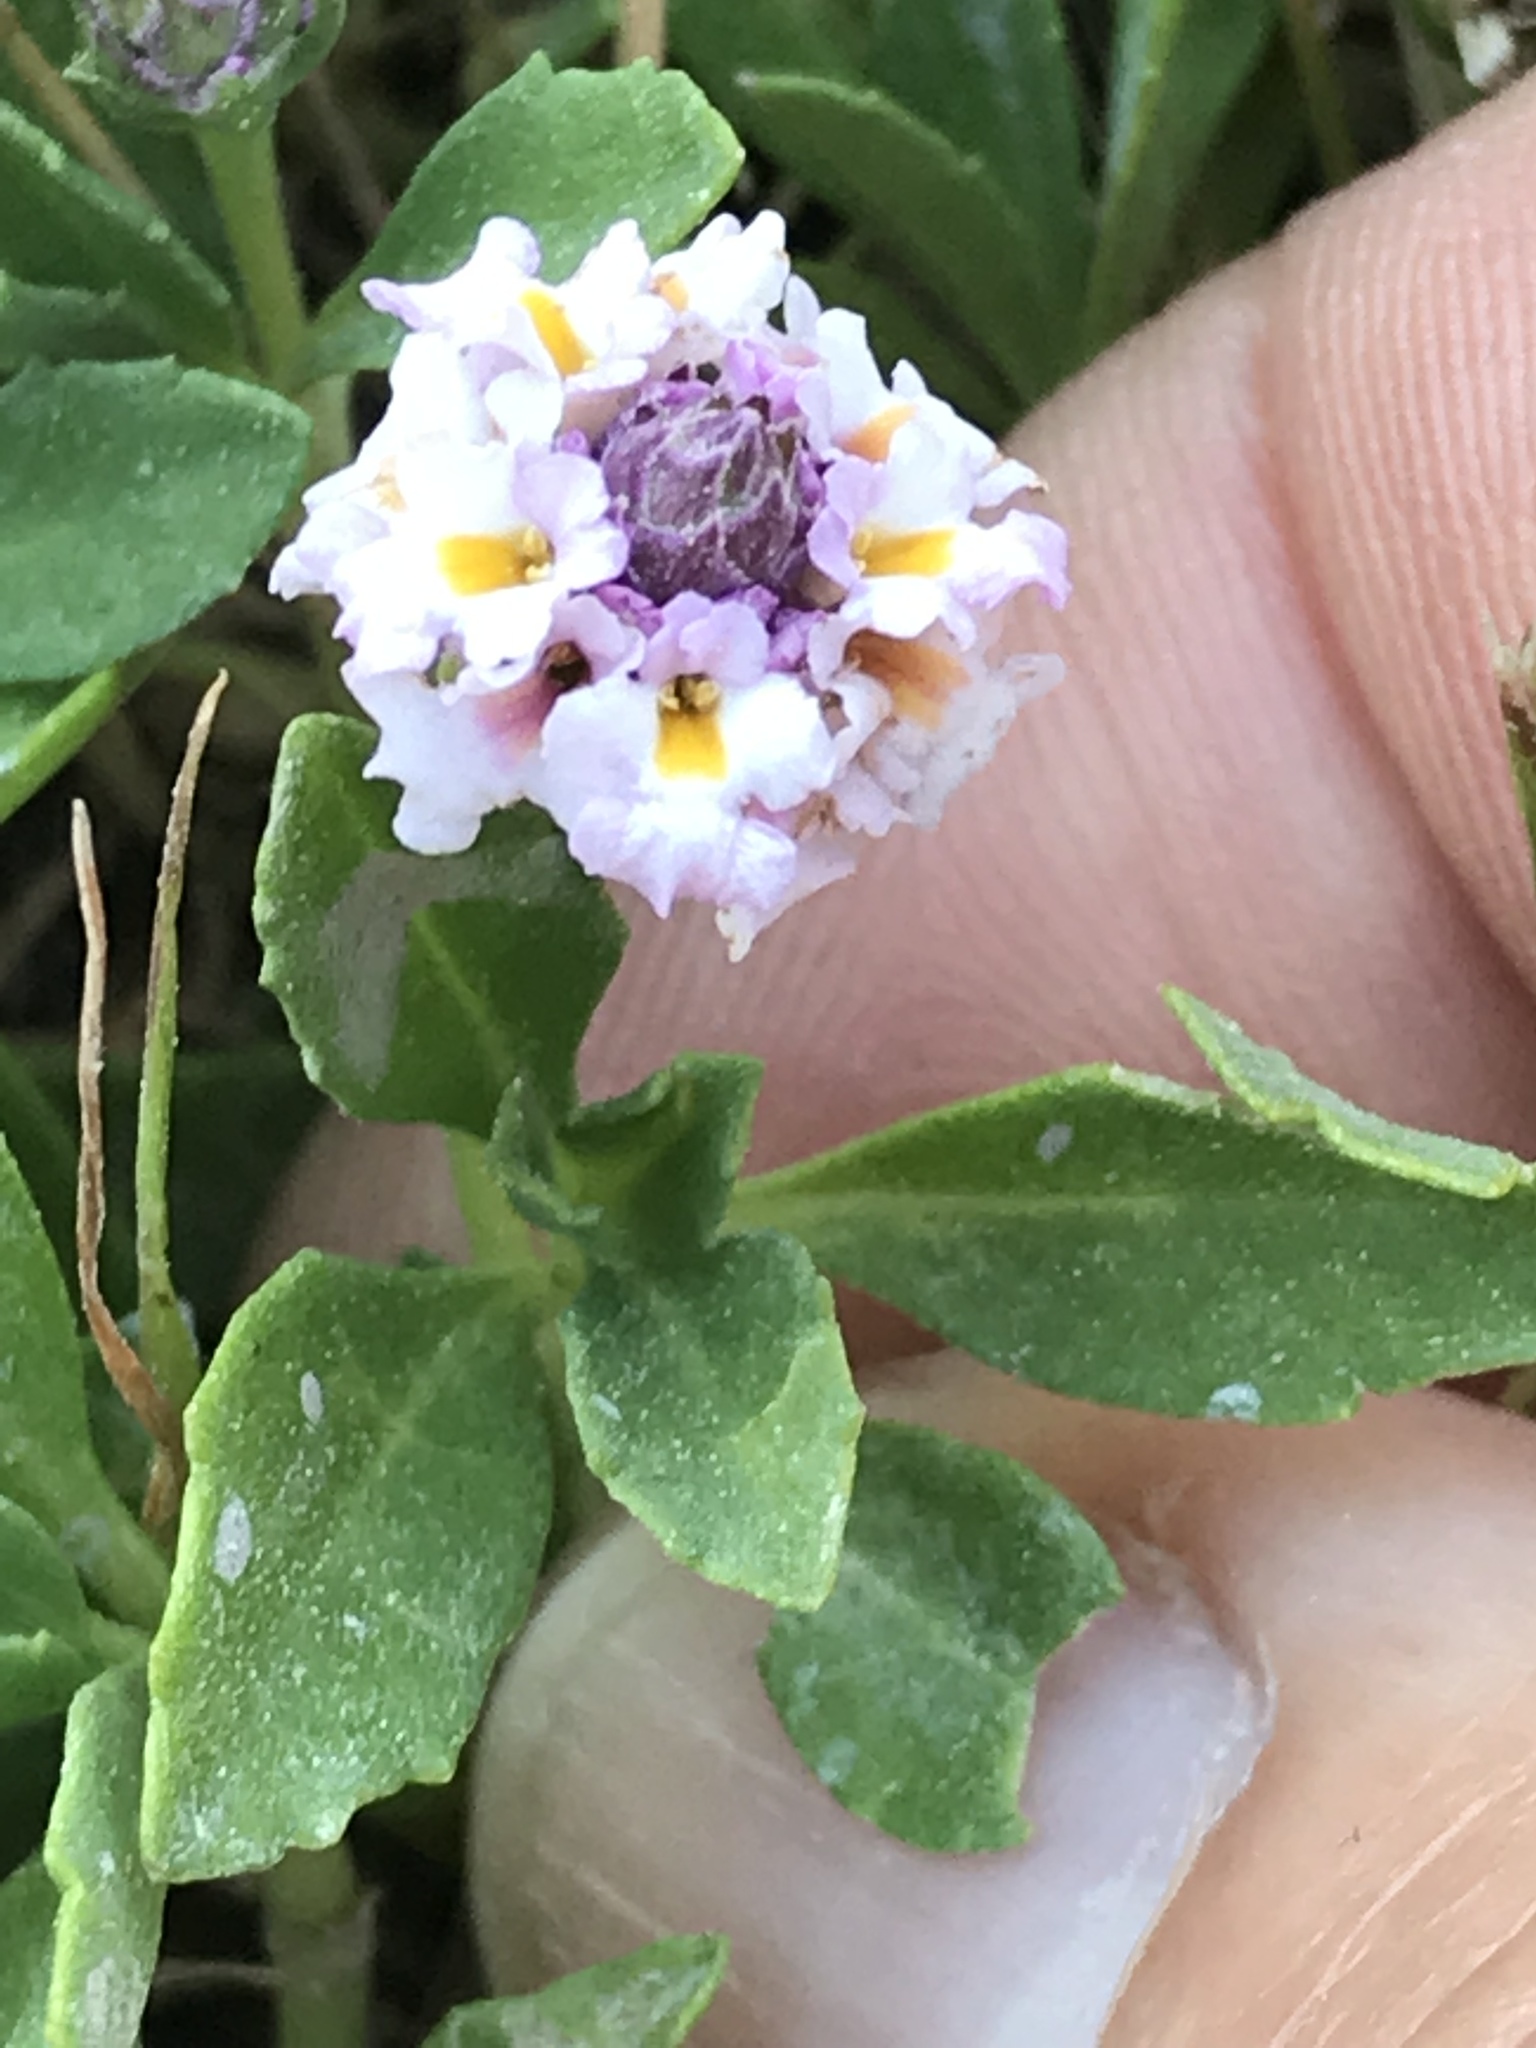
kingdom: Plantae
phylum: Tracheophyta
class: Magnoliopsida
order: Lamiales
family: Verbenaceae
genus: Phyla
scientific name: Phyla nodiflora
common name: Frogfruit
